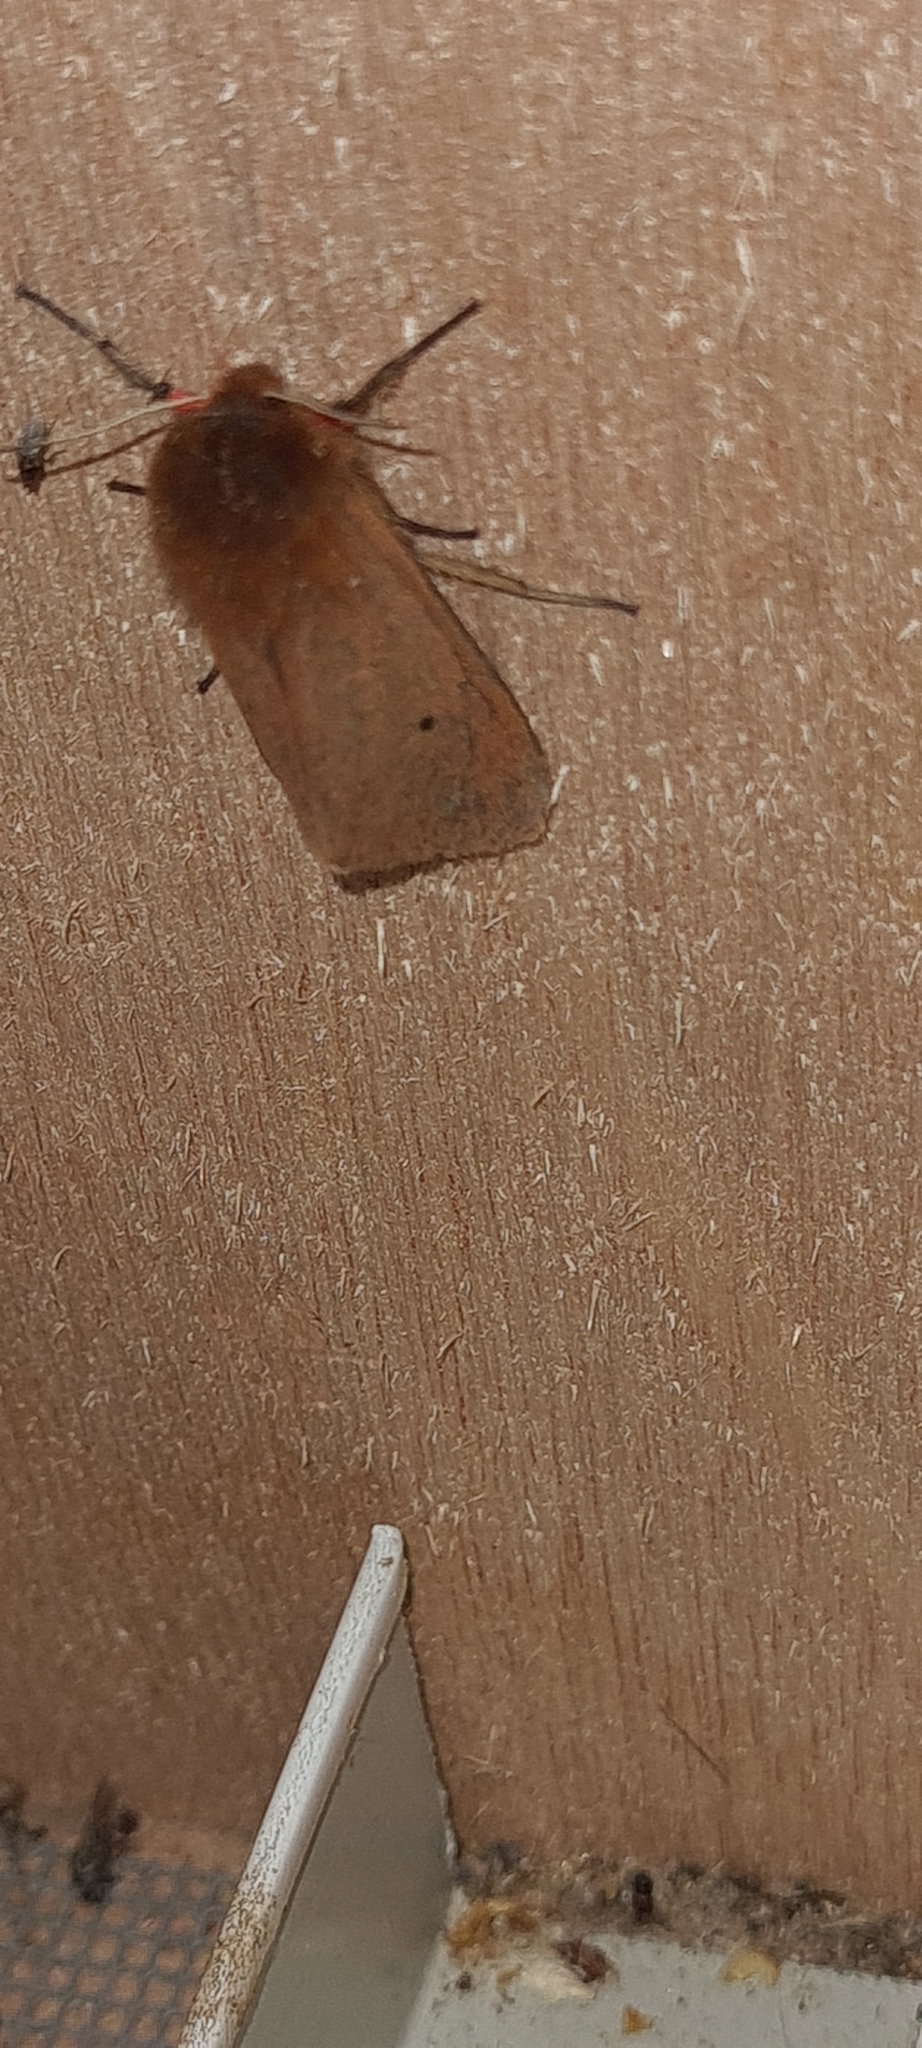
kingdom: Animalia
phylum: Arthropoda
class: Insecta
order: Lepidoptera
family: Erebidae
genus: Phragmatobia
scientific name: Phragmatobia fuliginosa
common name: Ruby tiger
